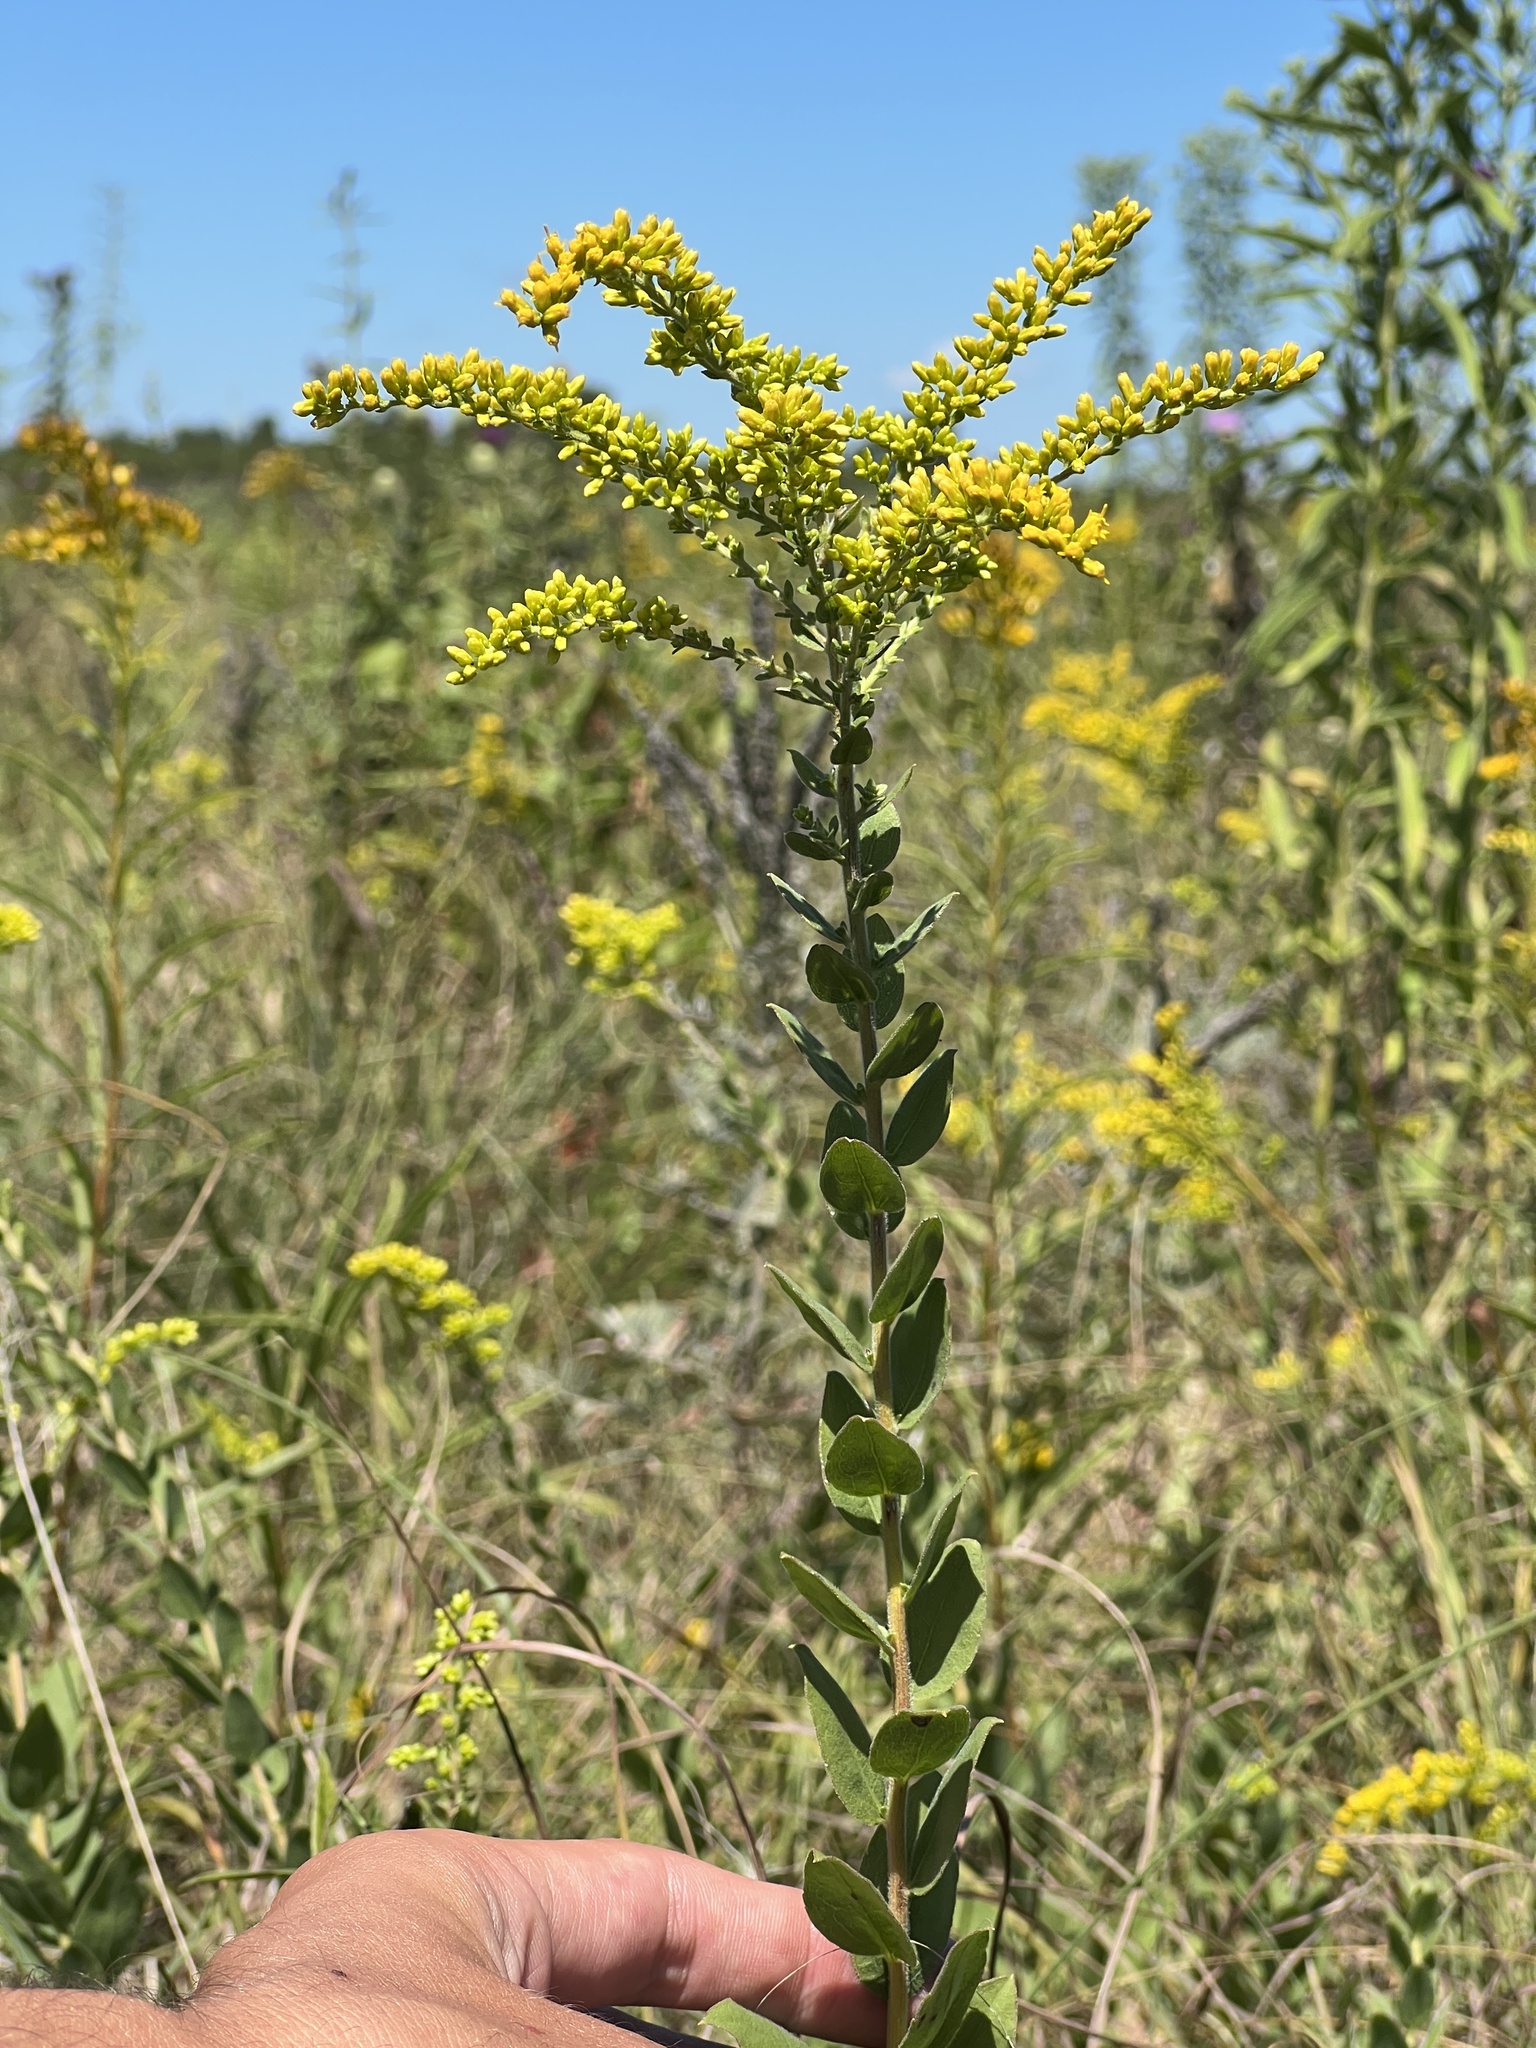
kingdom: Plantae
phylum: Tracheophyta
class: Magnoliopsida
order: Asterales
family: Asteraceae
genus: Solidago
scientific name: Solidago rigida
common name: Rigid goldenrod
